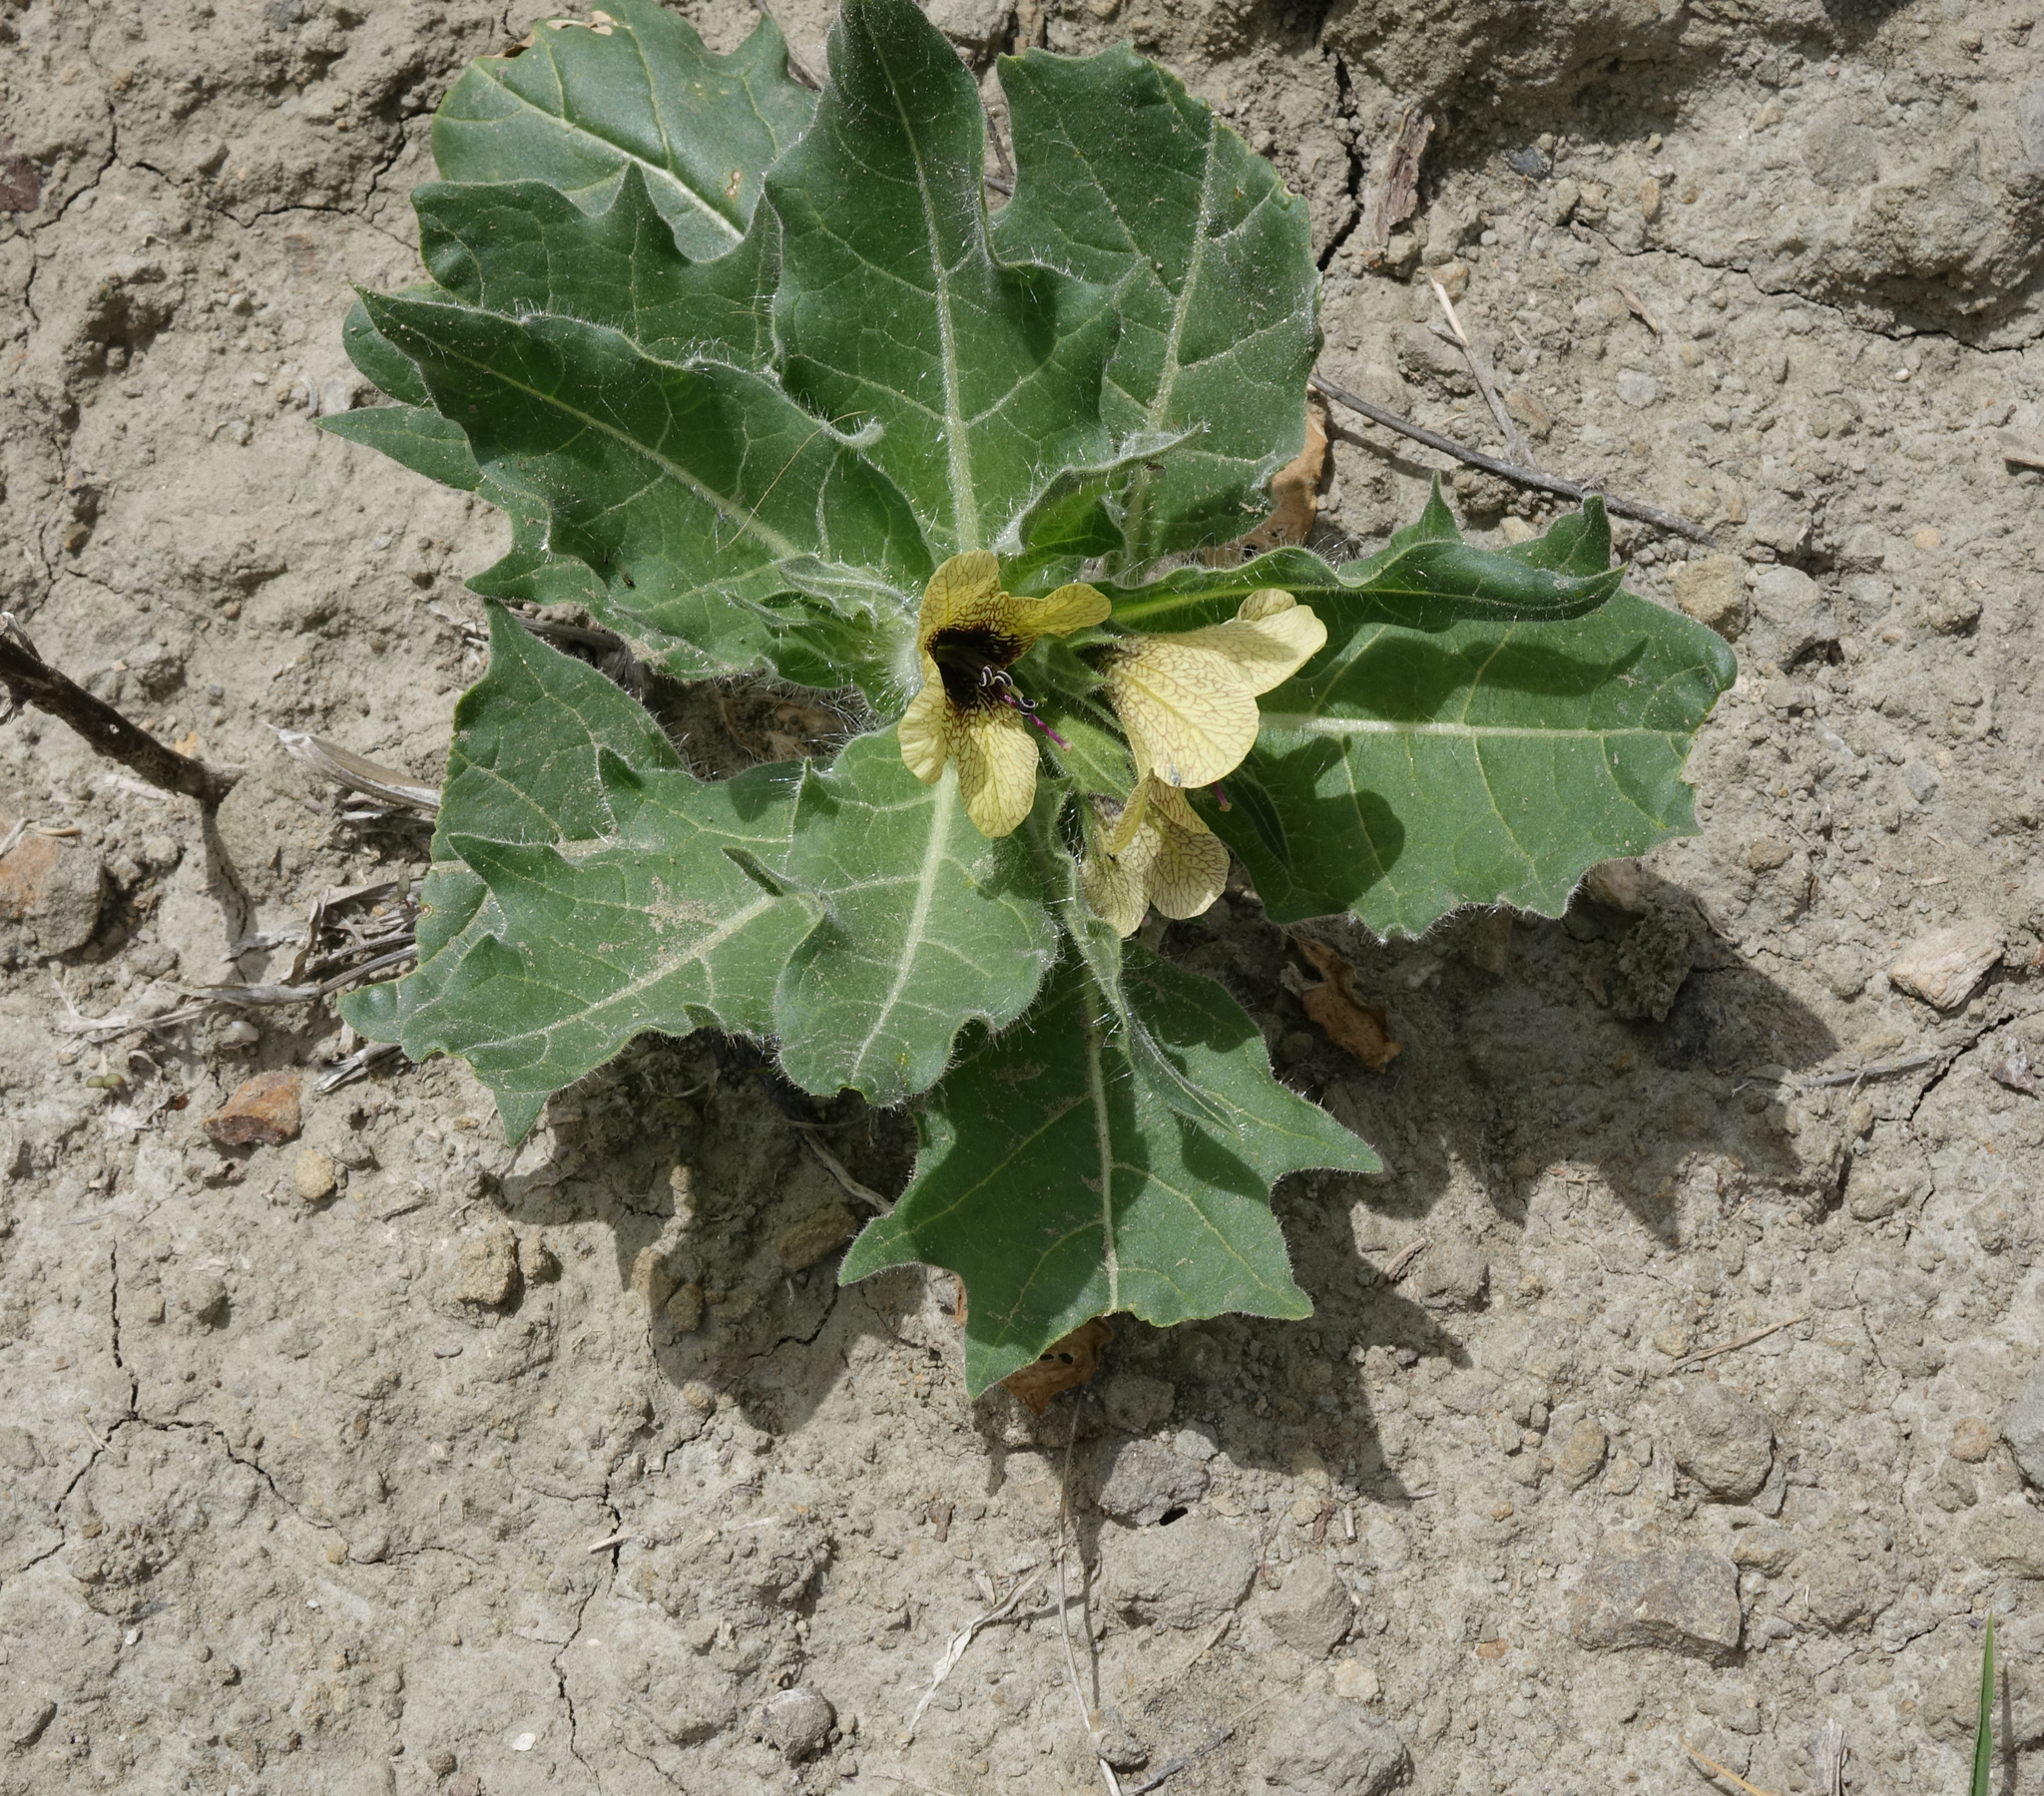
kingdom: Plantae
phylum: Tracheophyta
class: Magnoliopsida
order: Solanales
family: Solanaceae
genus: Hyoscyamus
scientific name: Hyoscyamus niger
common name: Henbane
